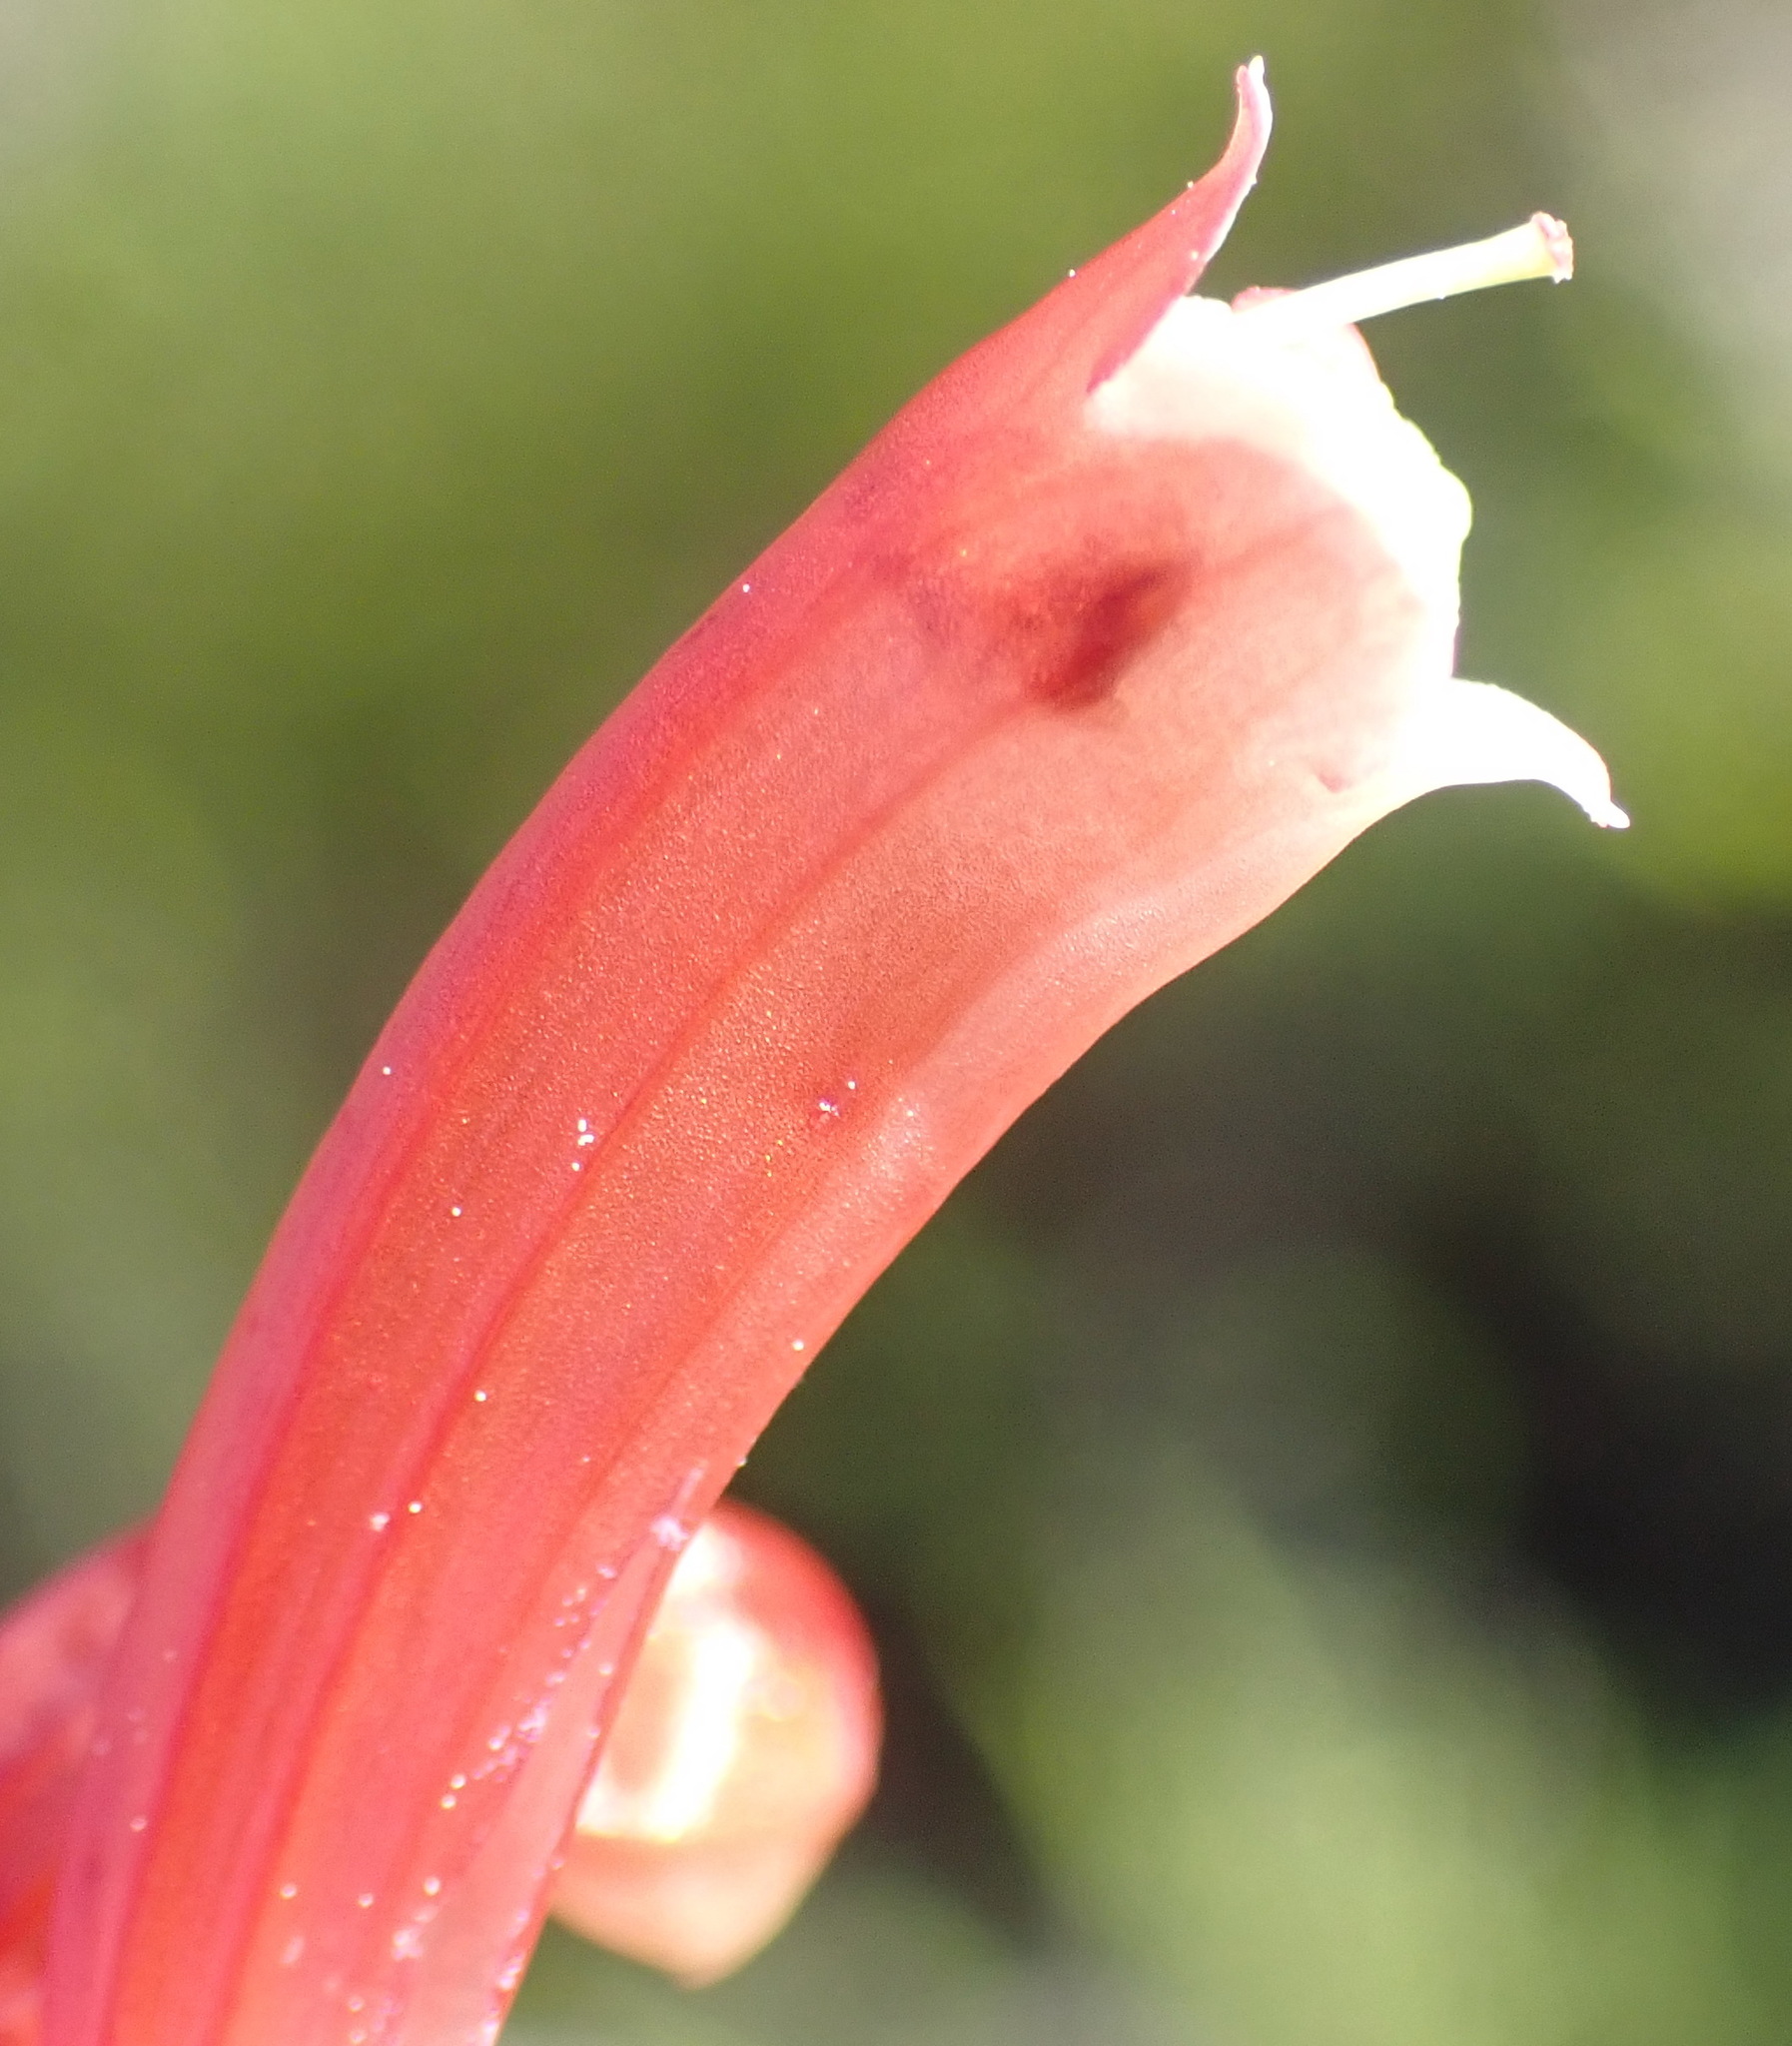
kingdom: Plantae
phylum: Tracheophyta
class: Magnoliopsida
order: Ericales
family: Ericaceae
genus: Erica
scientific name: Erica glandulosa
